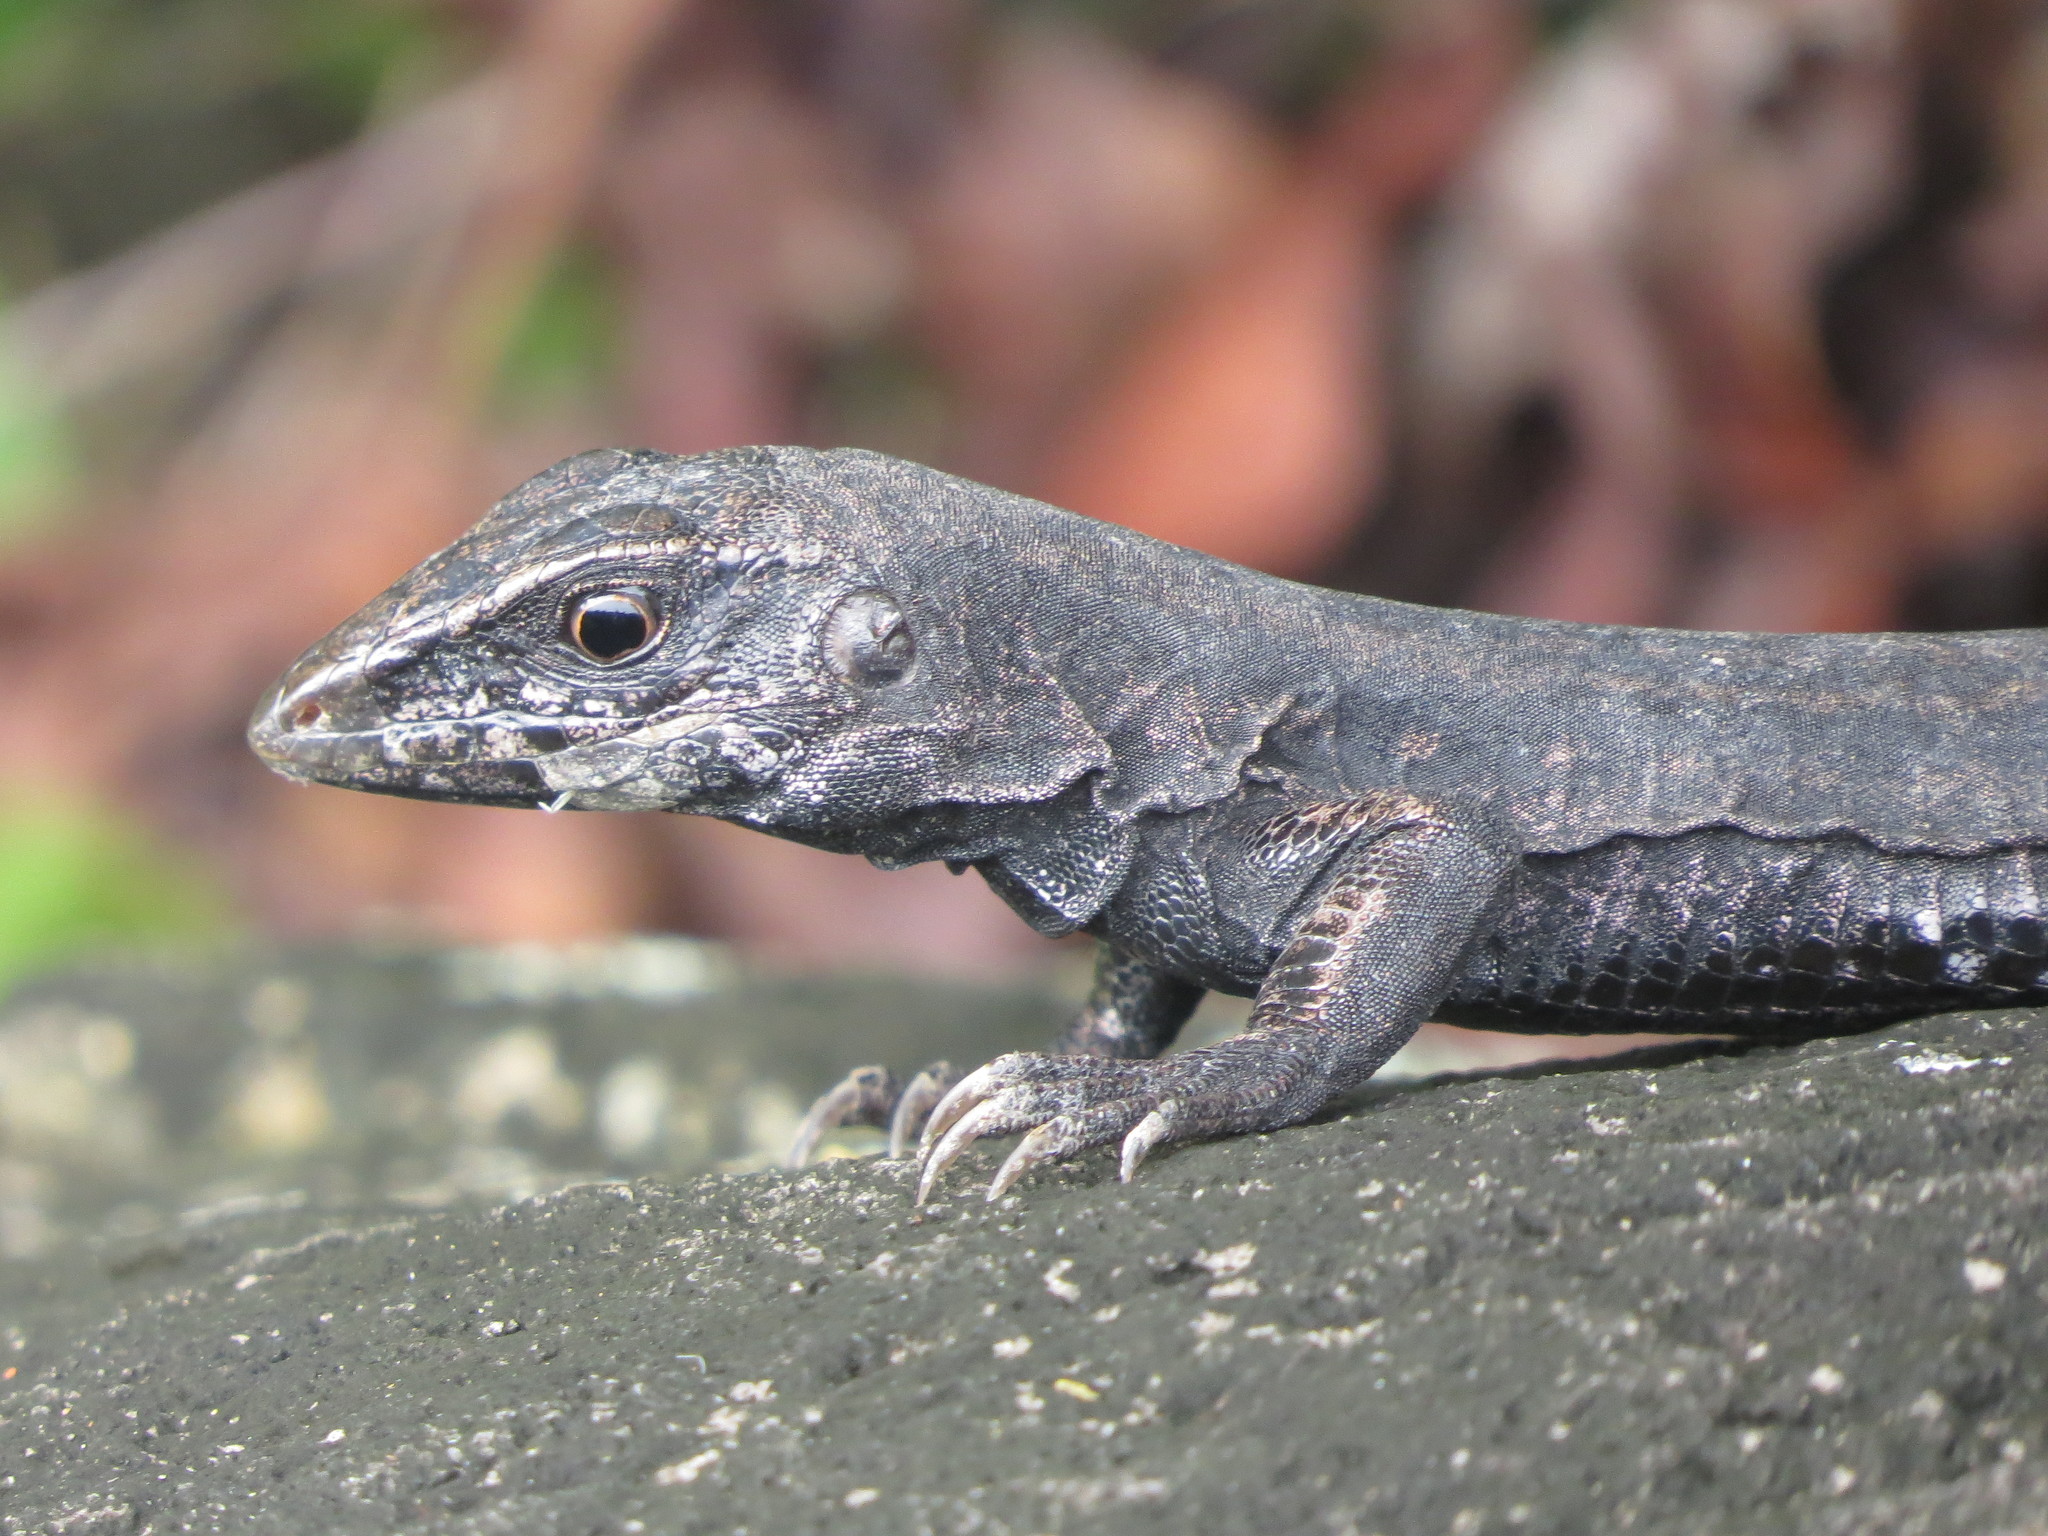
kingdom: Animalia
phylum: Chordata
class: Squamata
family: Teiidae
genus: Ameiva
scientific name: Ameiva fuliginosa
